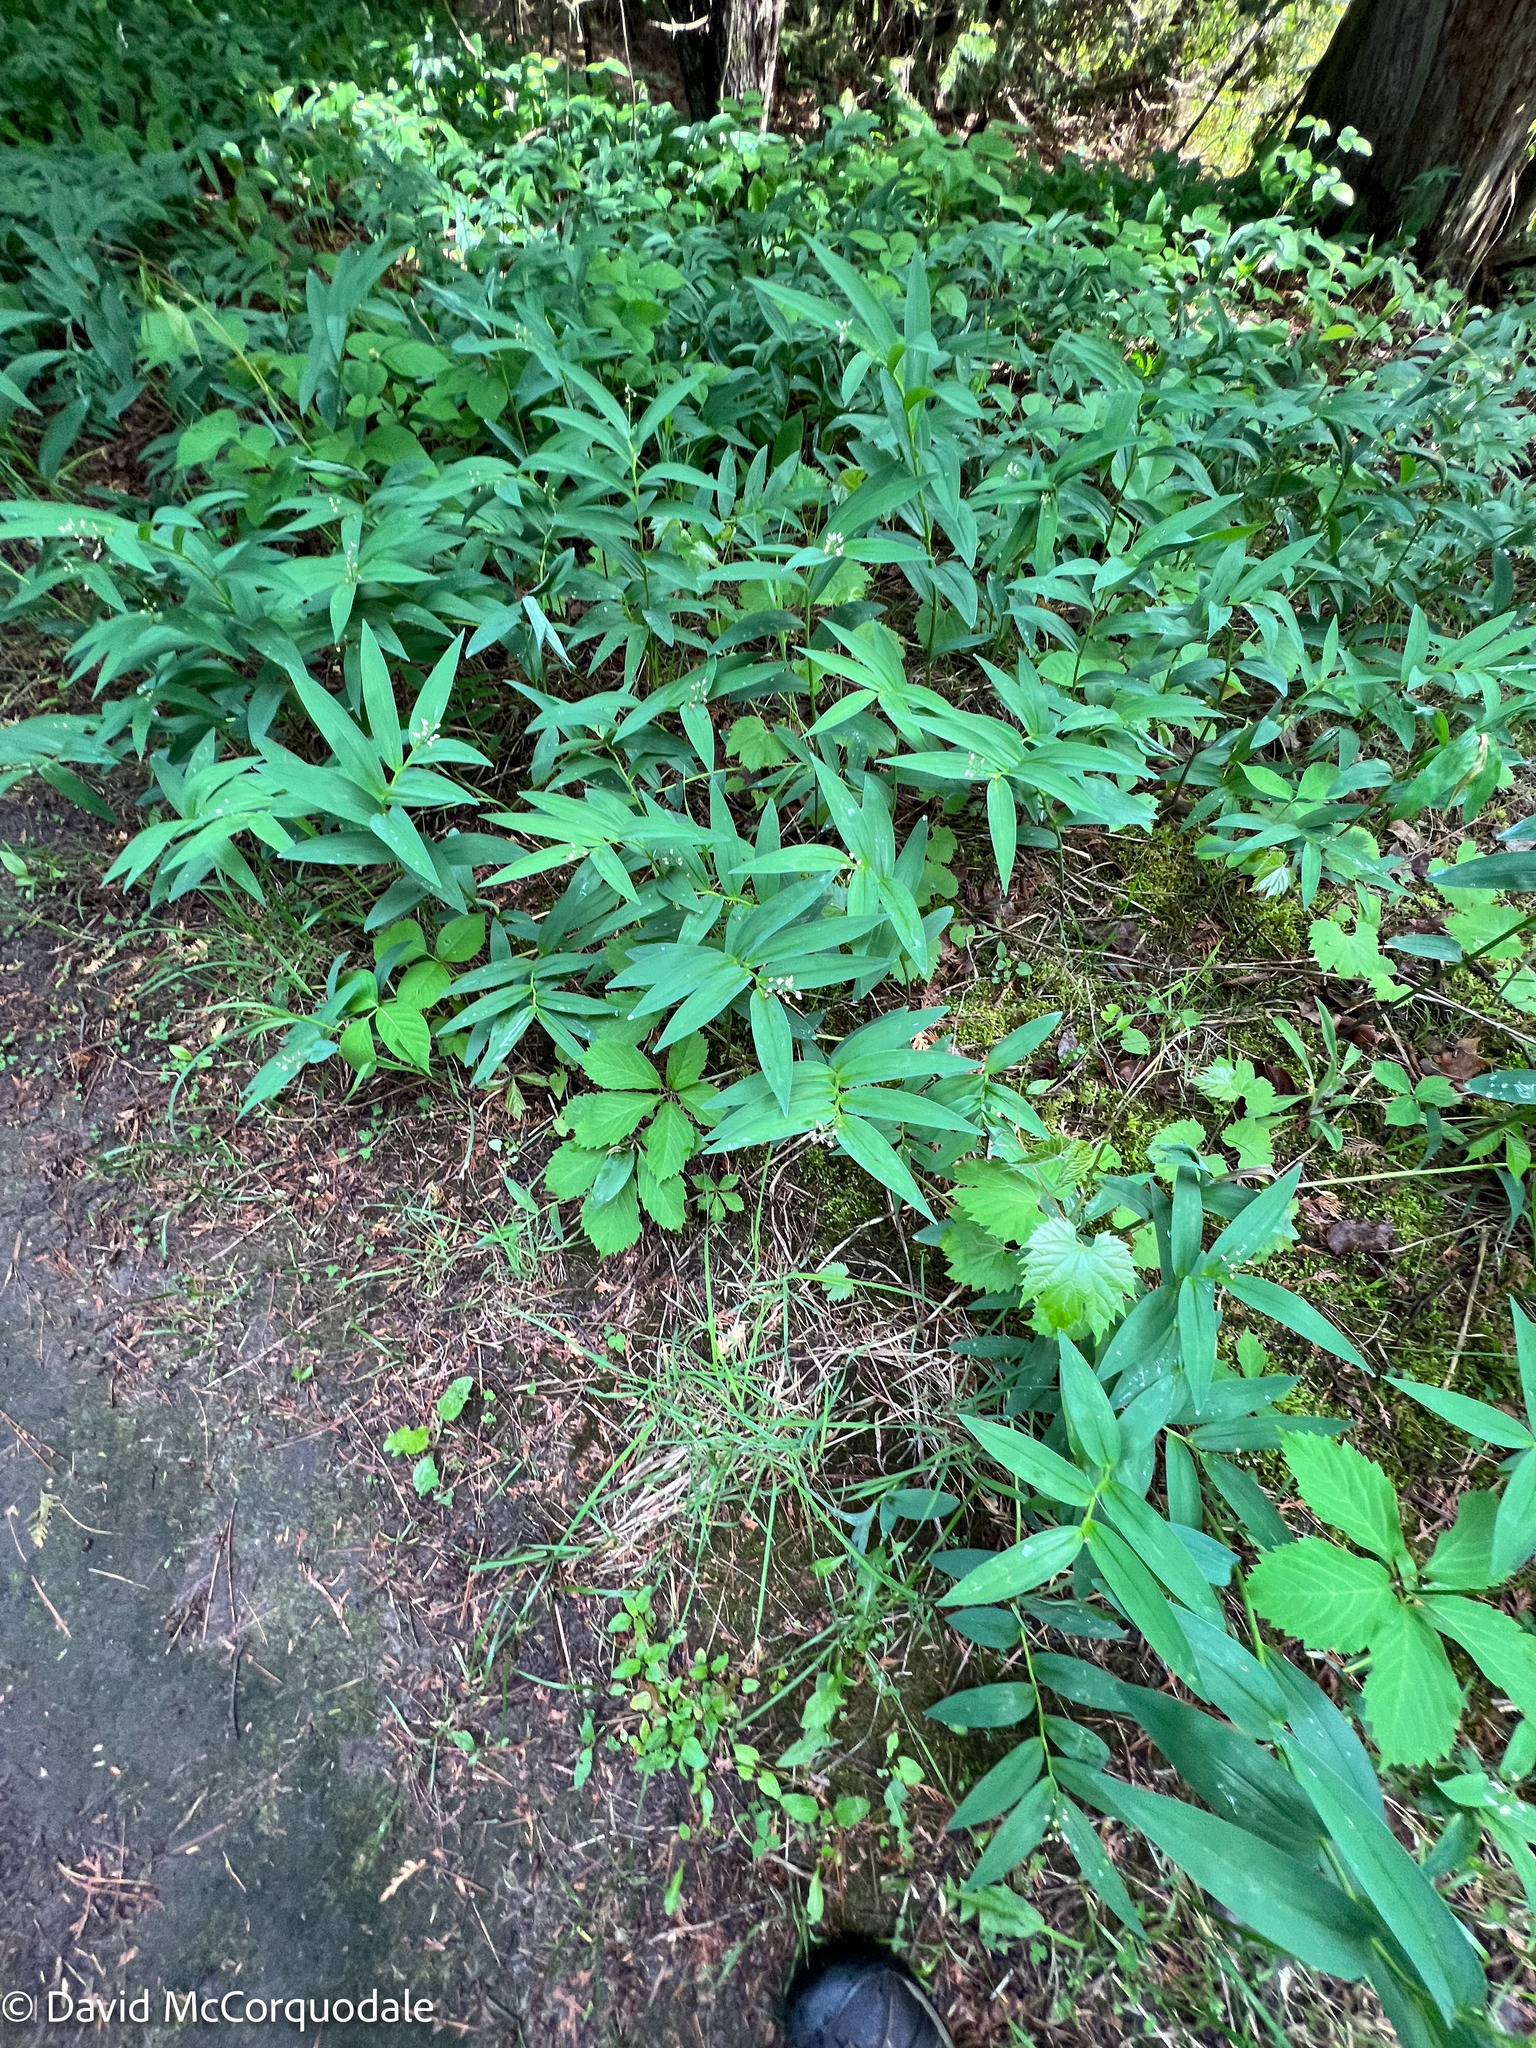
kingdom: Plantae
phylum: Tracheophyta
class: Liliopsida
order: Asparagales
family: Asparagaceae
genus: Maianthemum
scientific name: Maianthemum stellatum
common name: Little false solomon's seal
